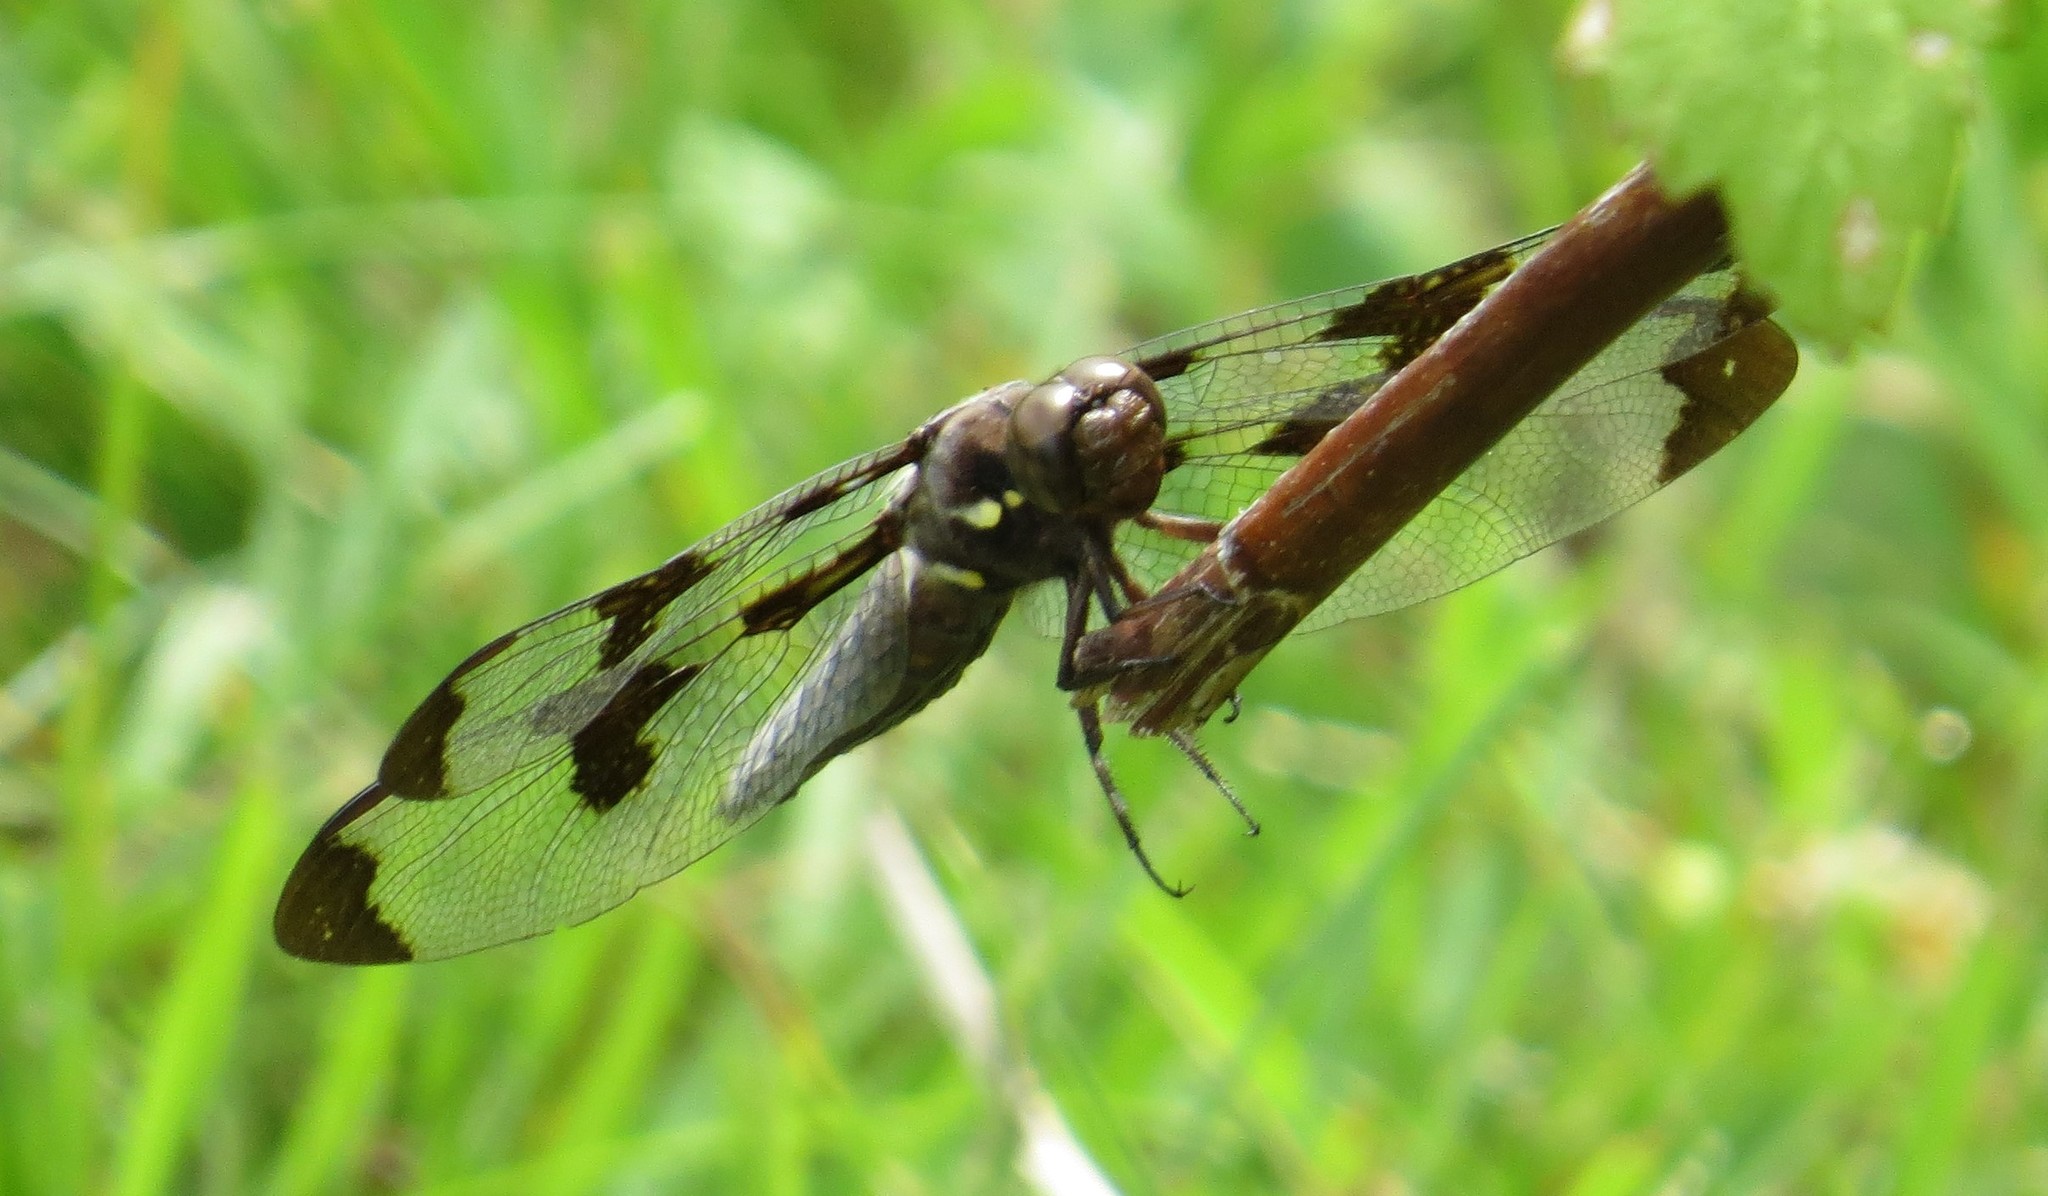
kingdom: Animalia
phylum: Arthropoda
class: Insecta
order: Odonata
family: Libellulidae
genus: Libellula
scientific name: Libellula pulchella
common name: Twelve-spotted skimmer
